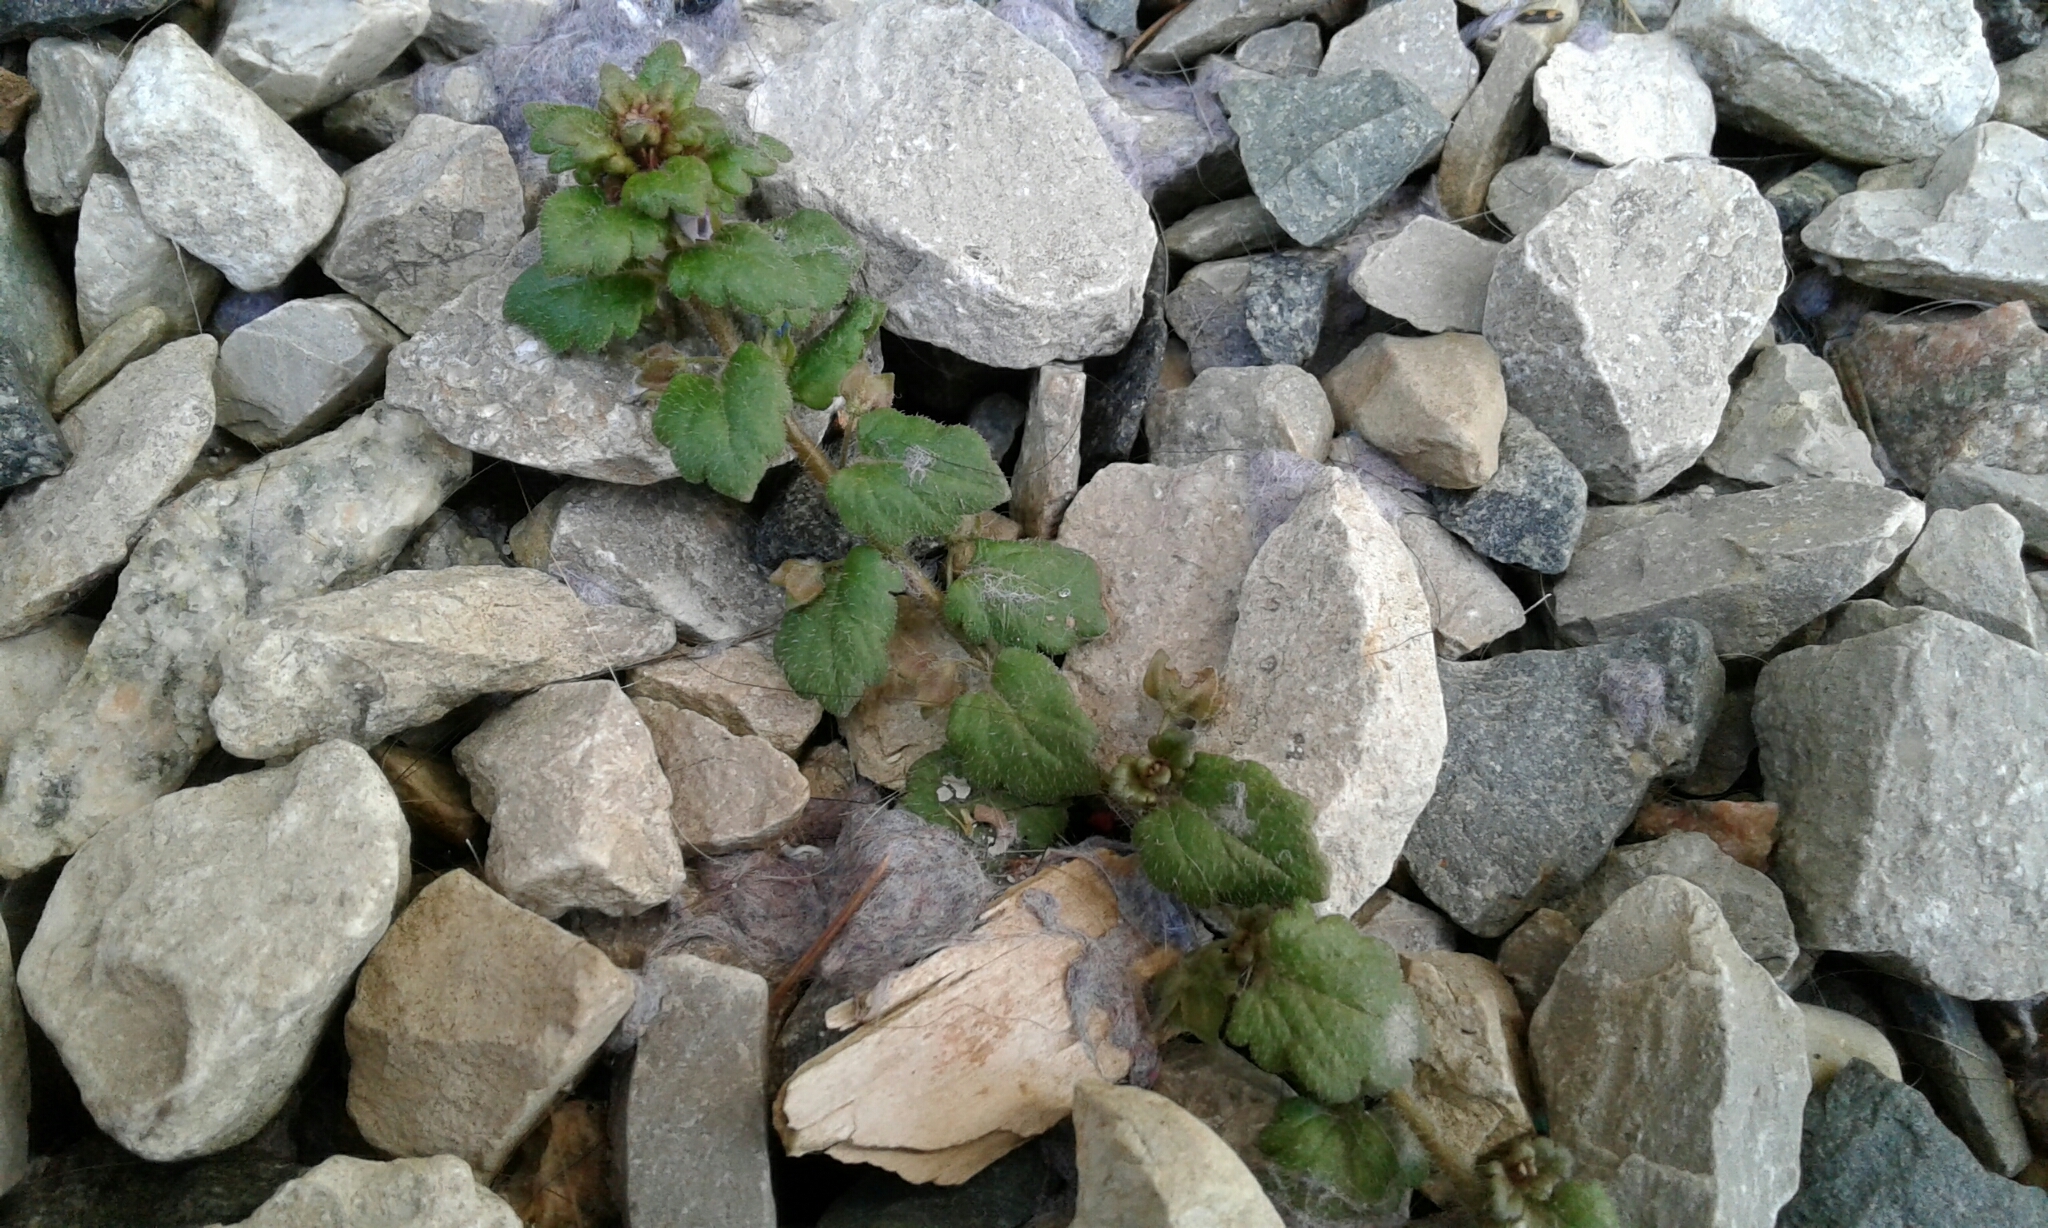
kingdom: Plantae
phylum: Tracheophyta
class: Magnoliopsida
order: Lamiales
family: Plantaginaceae
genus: Veronica
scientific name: Veronica polita
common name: Grey field-speedwell
